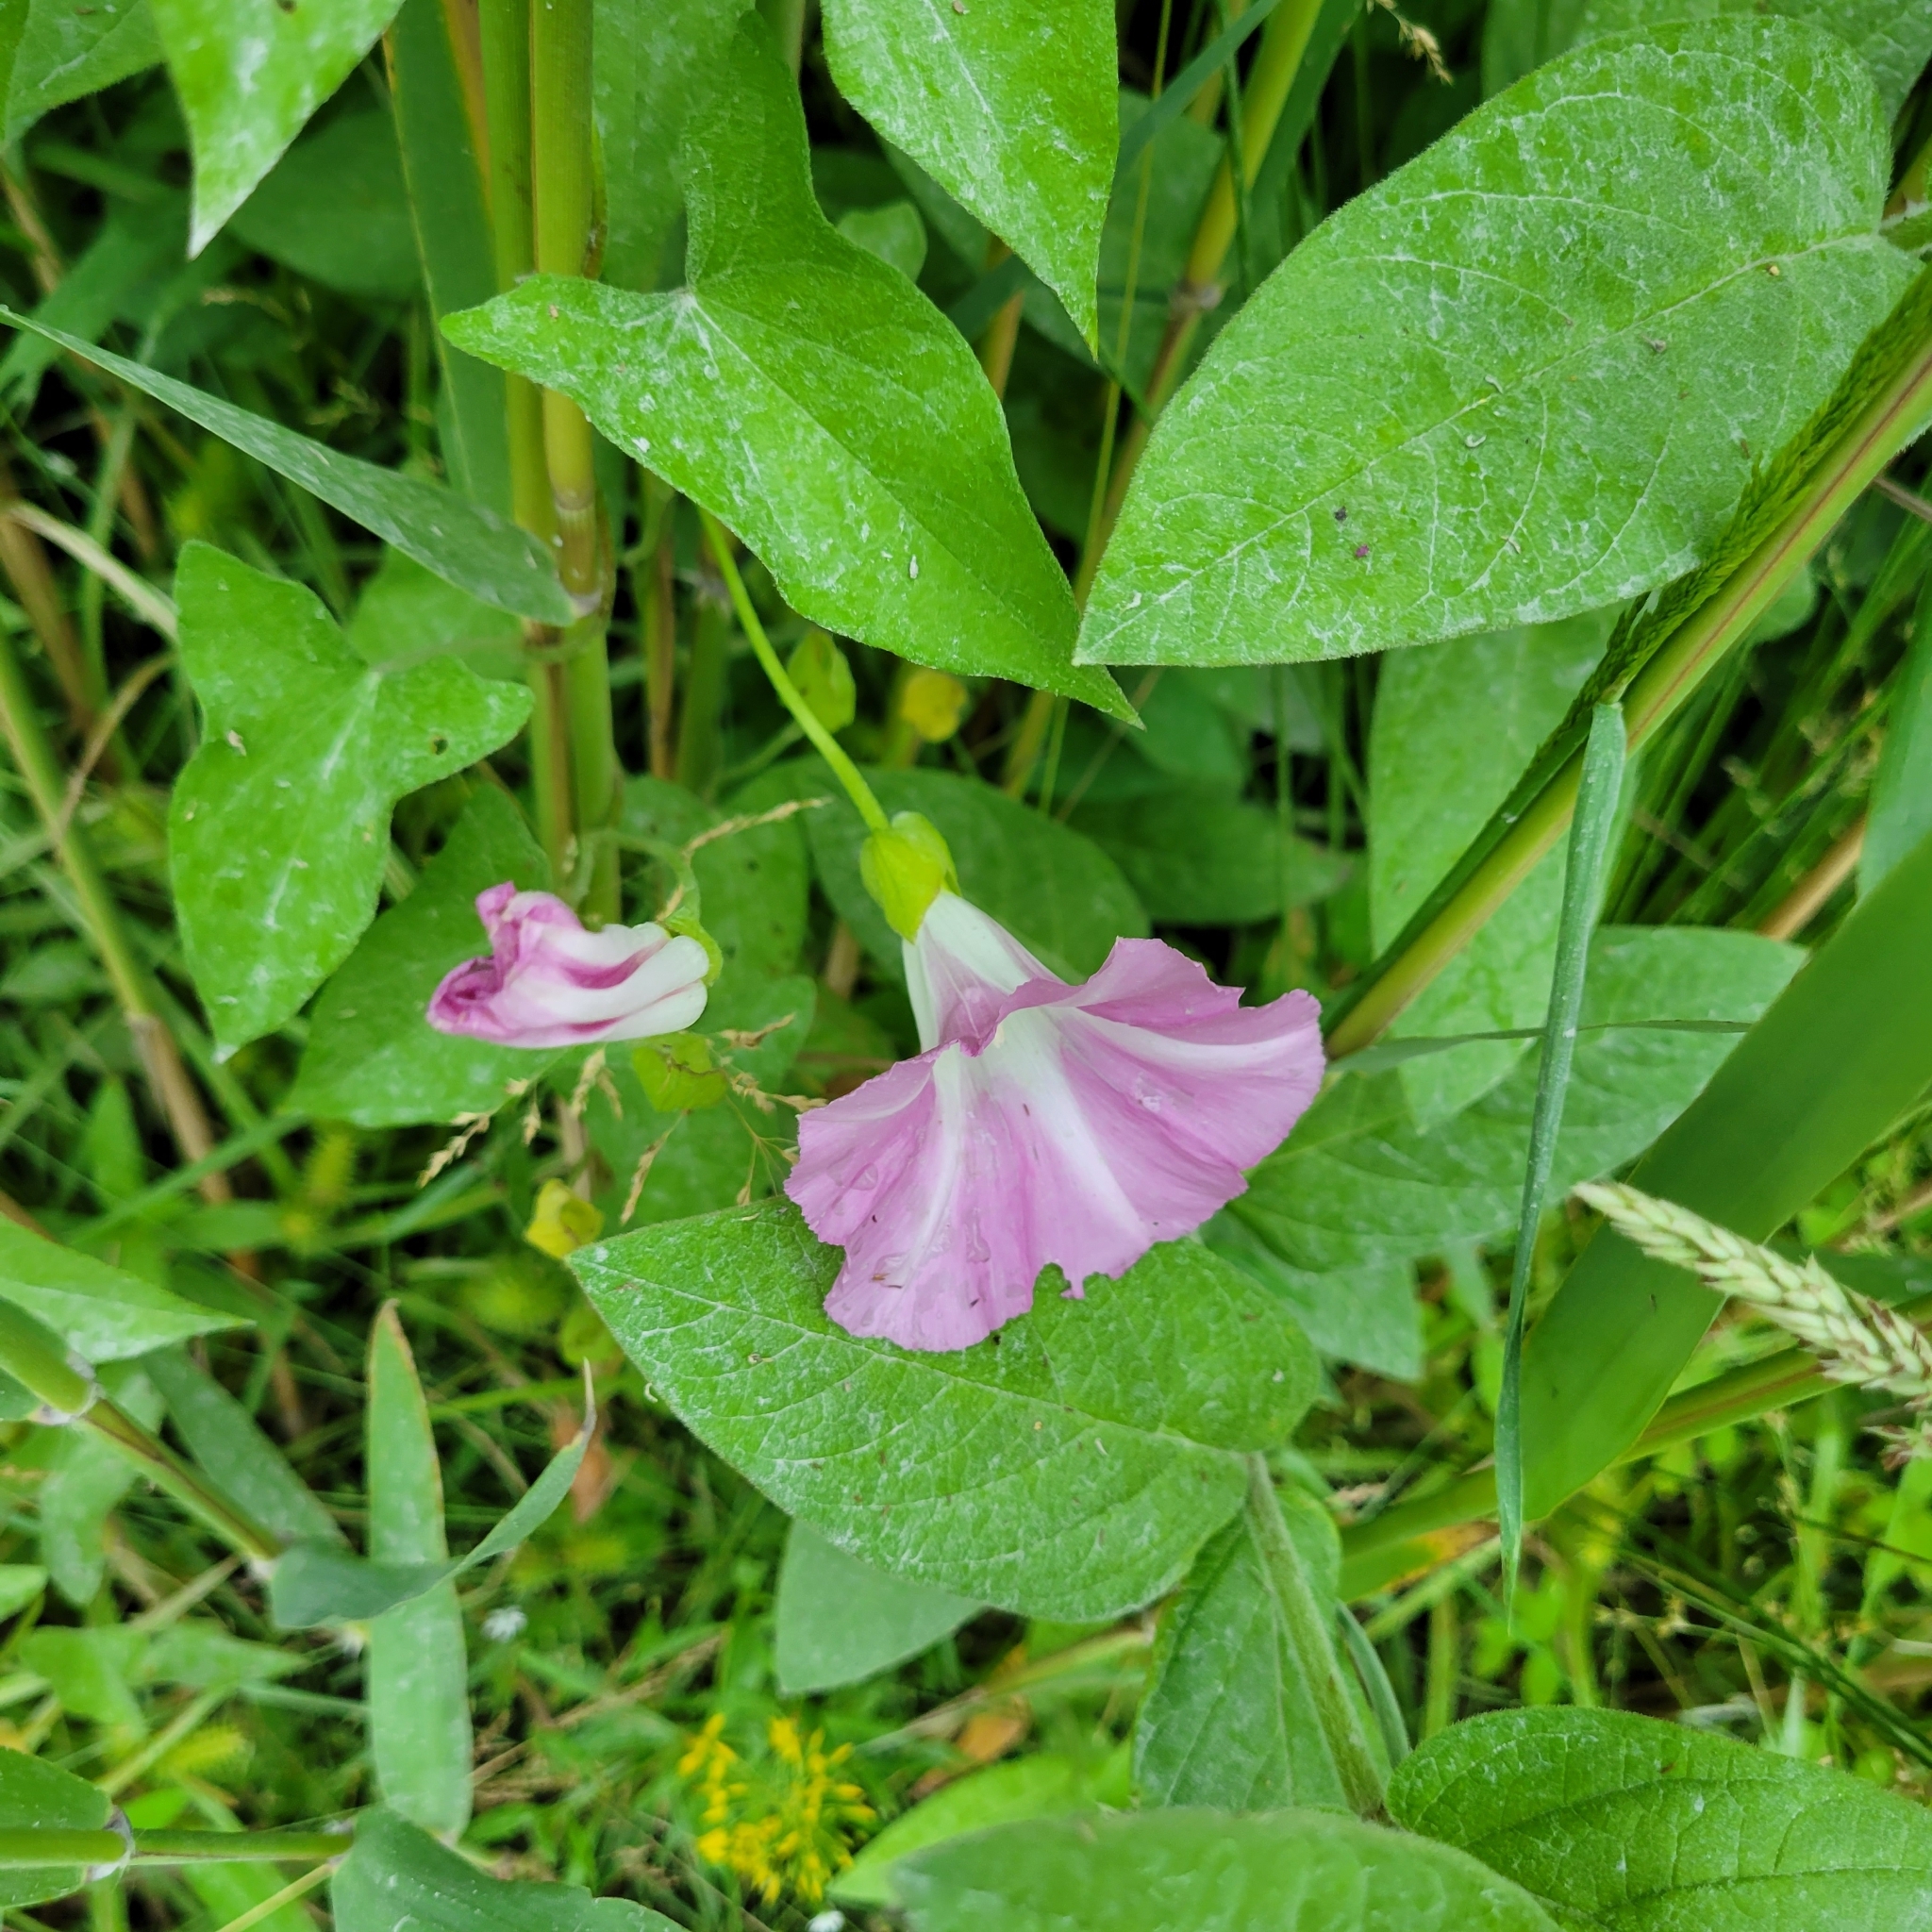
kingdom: Plantae
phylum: Tracheophyta
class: Magnoliopsida
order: Solanales
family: Convolvulaceae
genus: Calystegia
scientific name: Calystegia sepium
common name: Hedge bindweed
